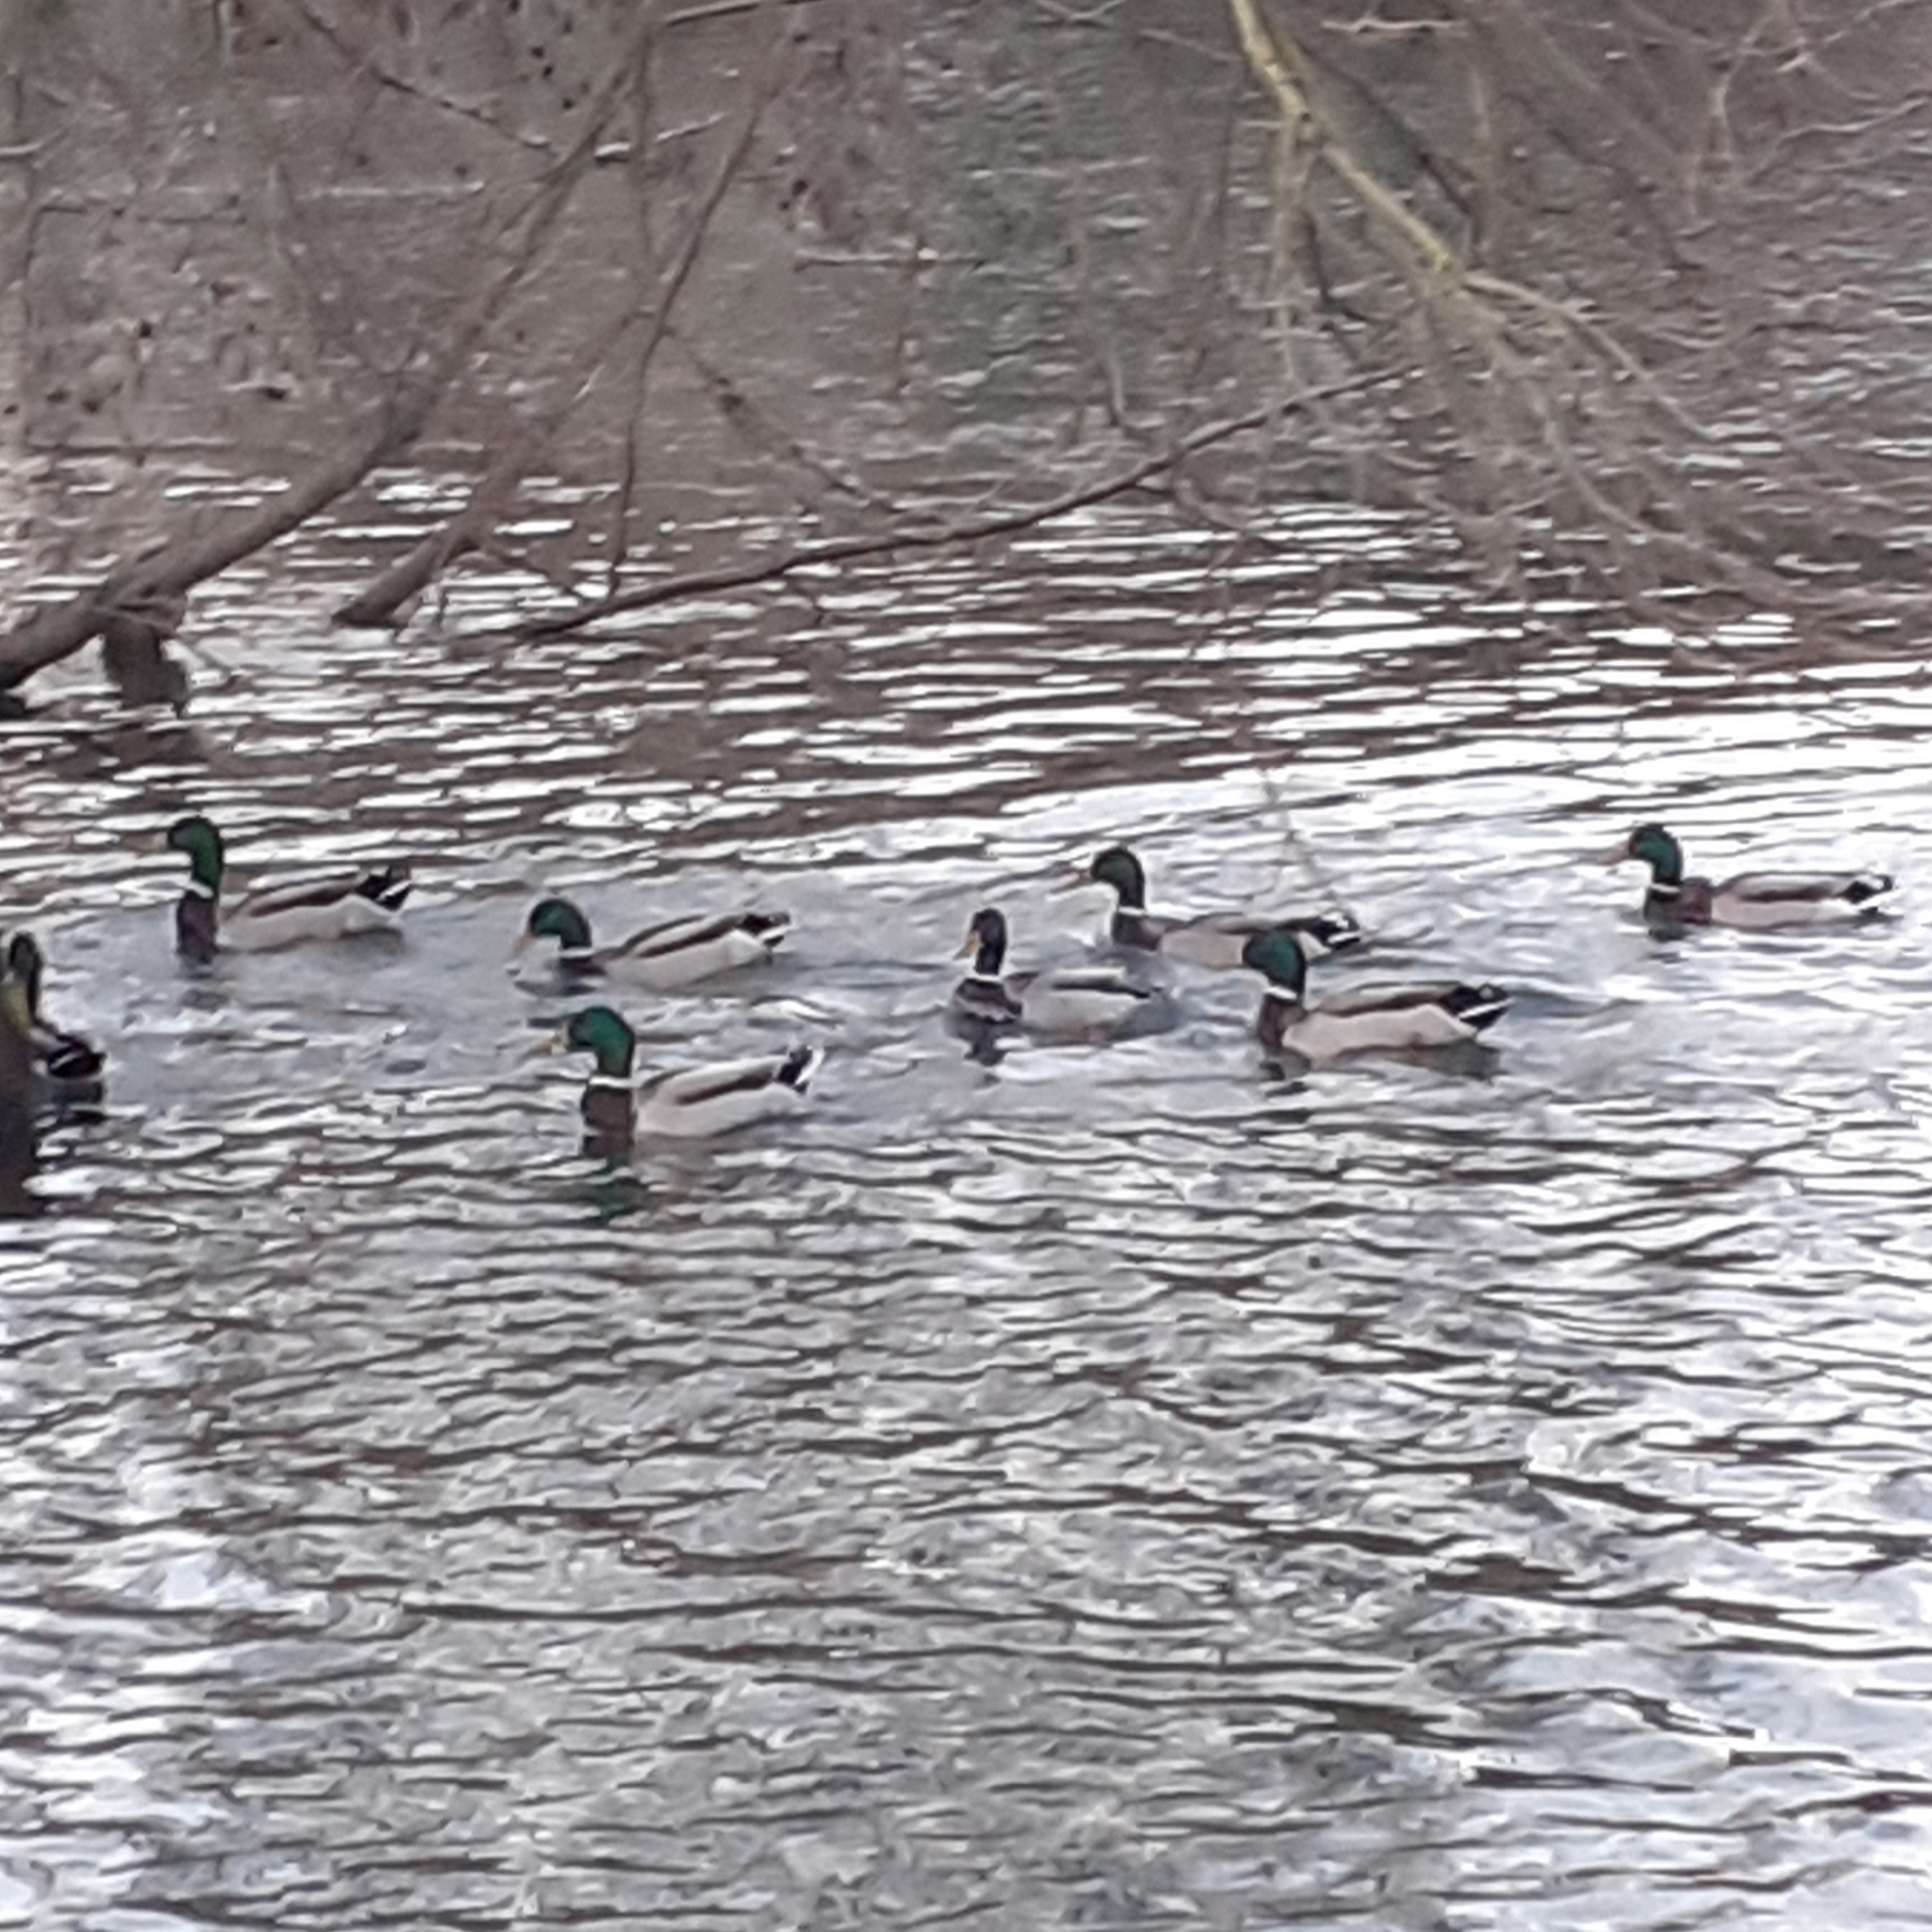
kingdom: Animalia
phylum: Chordata
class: Aves
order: Anseriformes
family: Anatidae
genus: Anas
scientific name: Anas platyrhynchos
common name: Mallard
